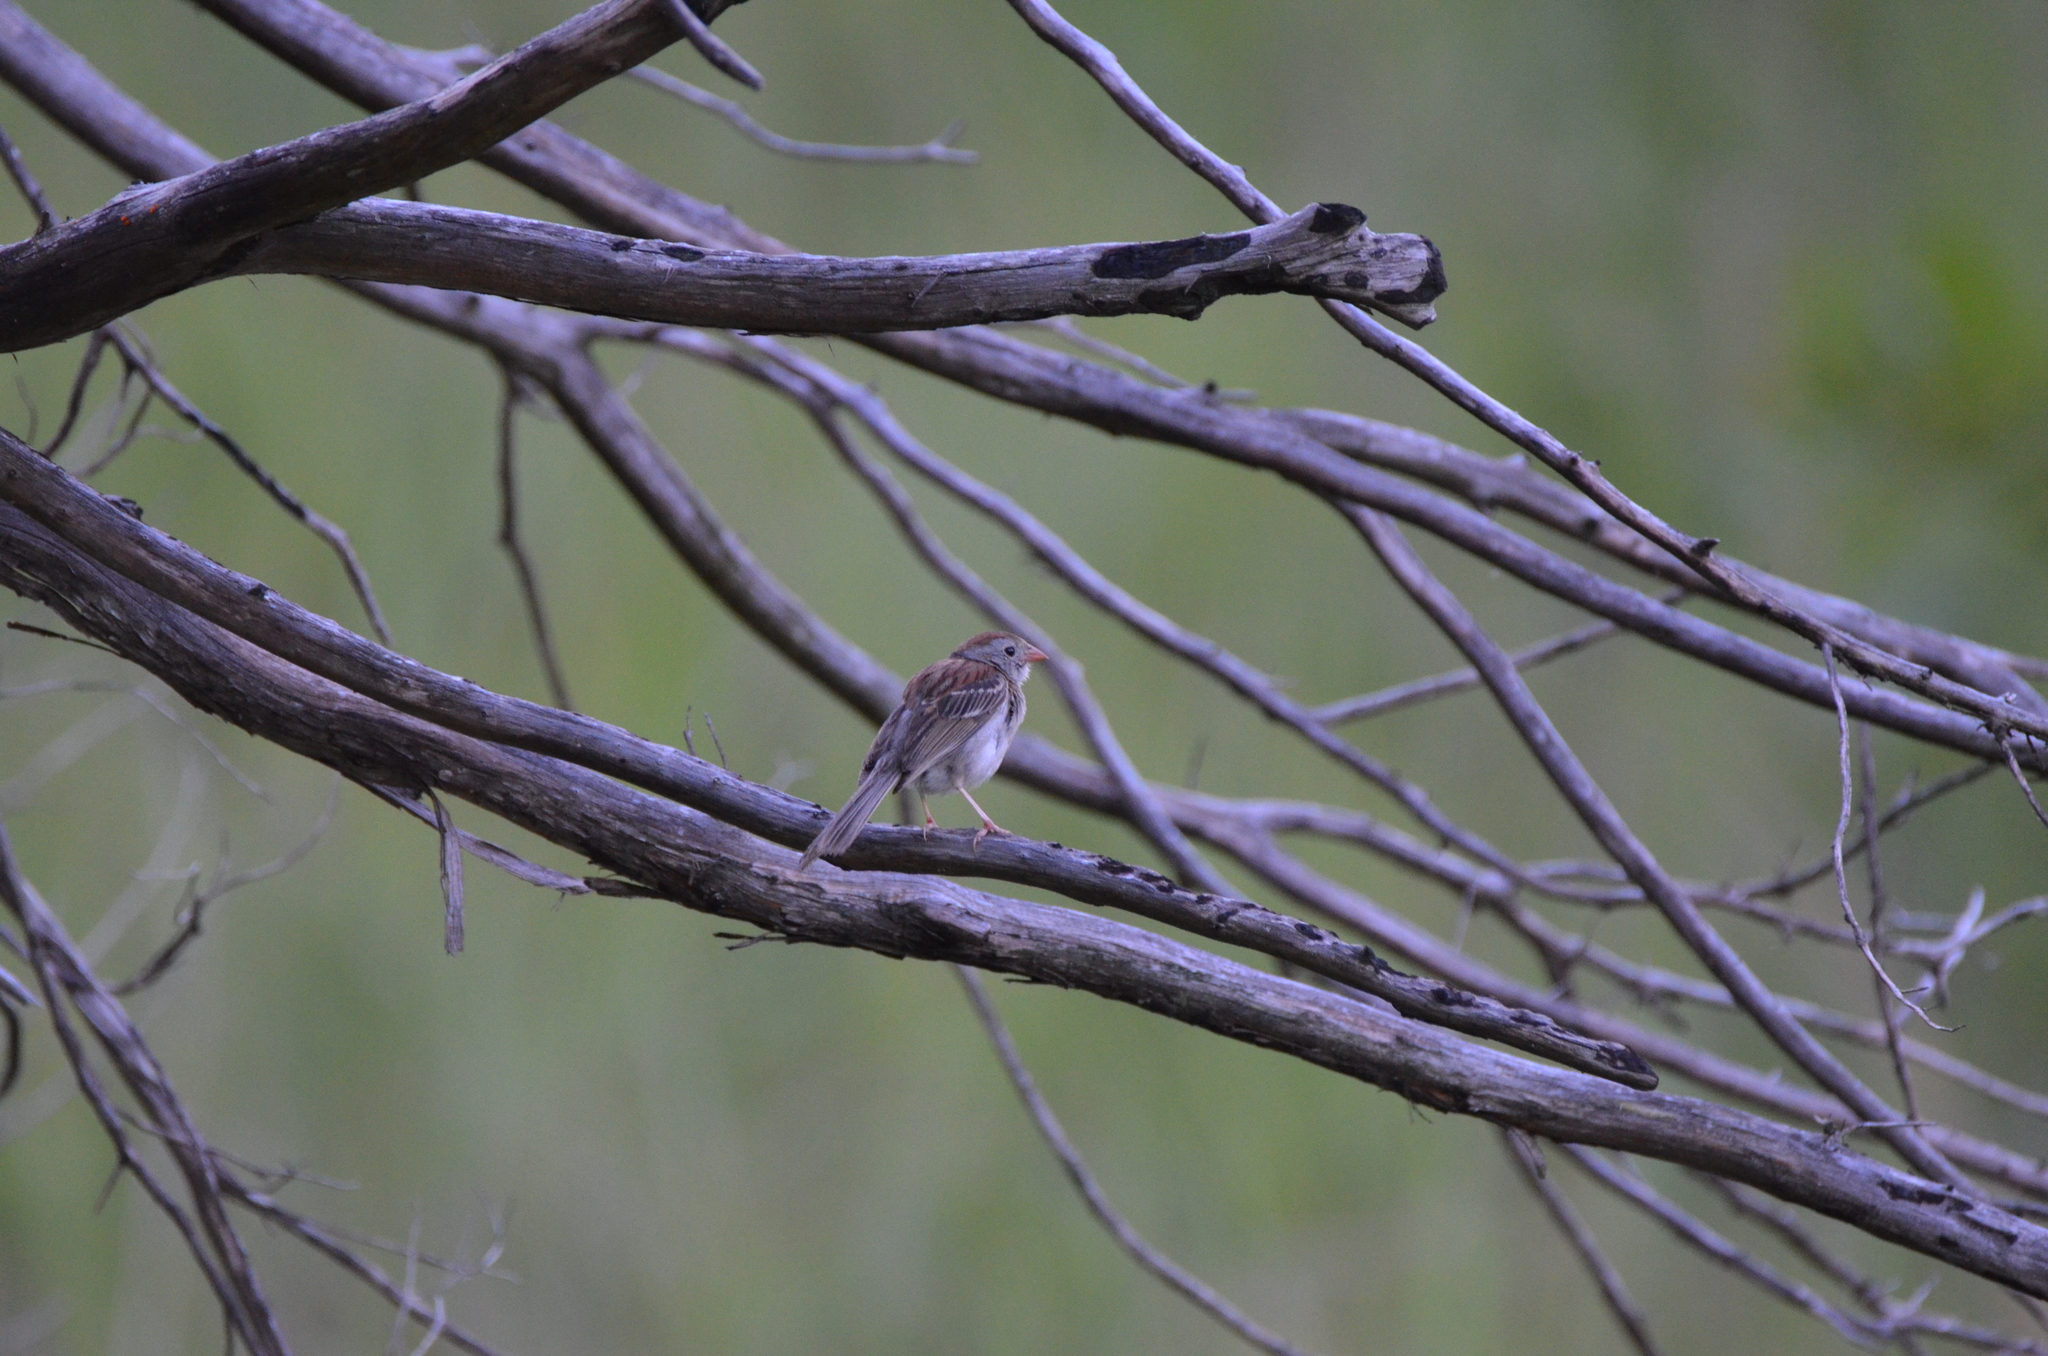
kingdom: Animalia
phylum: Chordata
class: Aves
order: Passeriformes
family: Passerellidae
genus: Spizella
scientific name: Spizella pusilla
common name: Field sparrow
